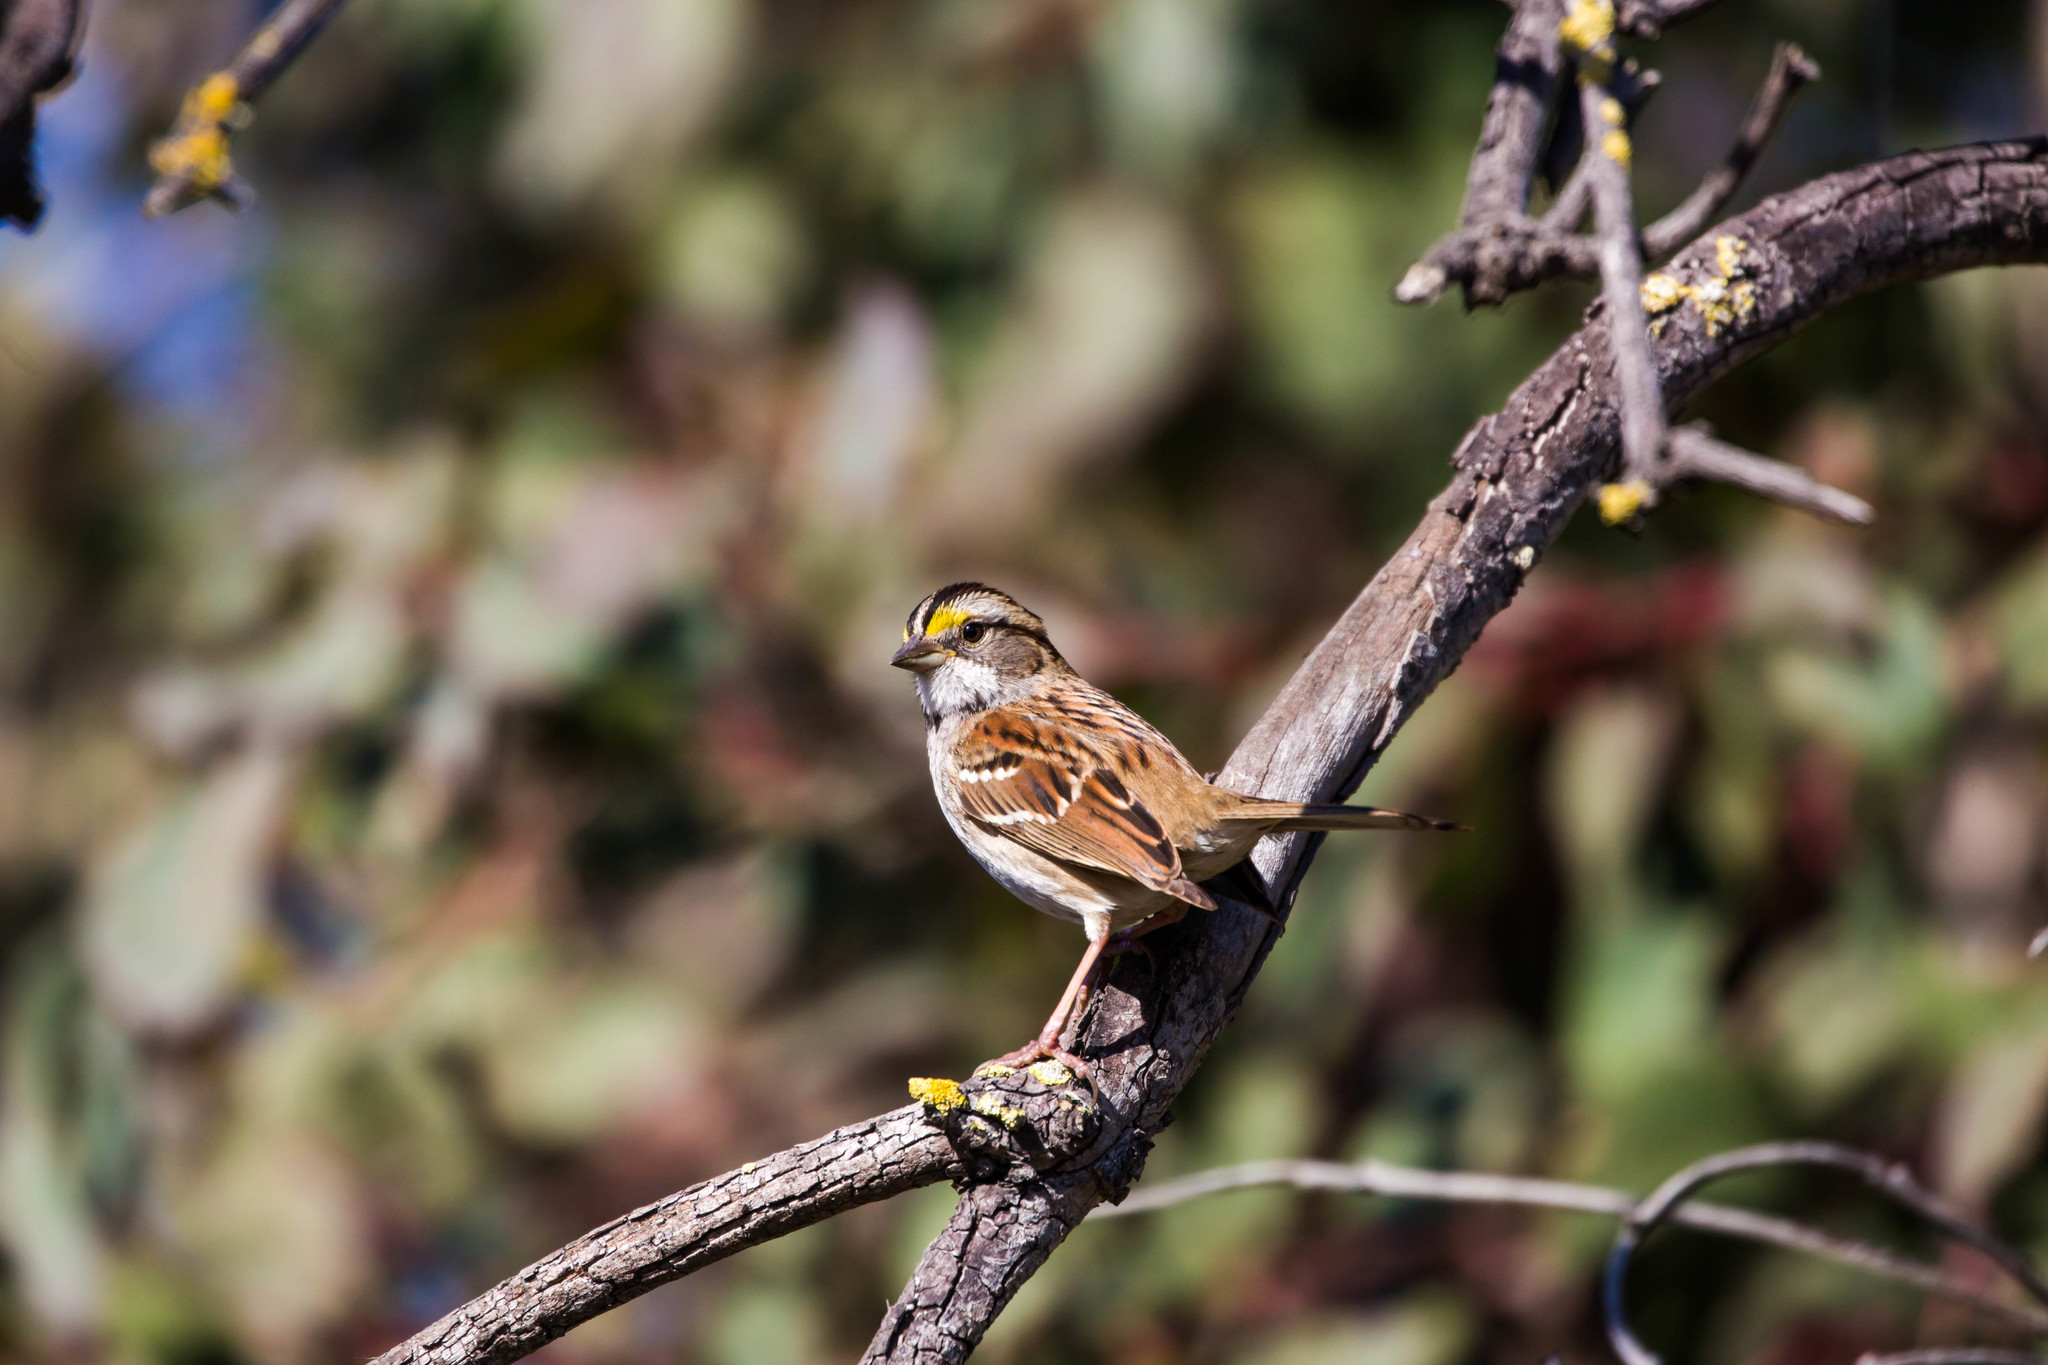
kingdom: Animalia
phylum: Chordata
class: Aves
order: Passeriformes
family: Passerellidae
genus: Zonotrichia
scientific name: Zonotrichia albicollis
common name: White-throated sparrow
